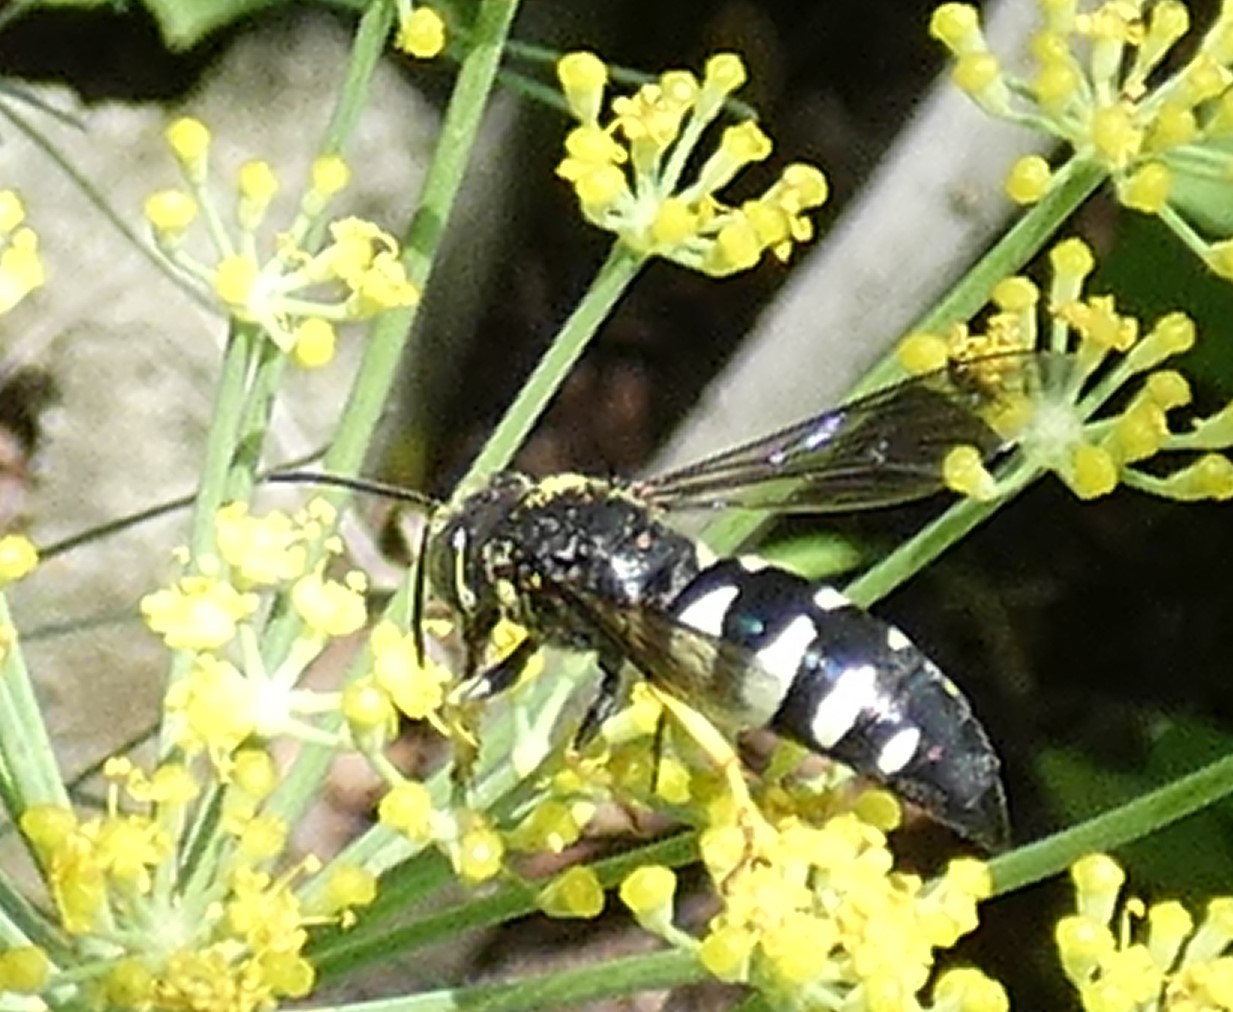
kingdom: Animalia
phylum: Arthropoda
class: Insecta
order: Hymenoptera
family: Crabronidae
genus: Bicyrtes
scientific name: Bicyrtes quadrifasciatus
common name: Four-banded stink bug hunter wasp
